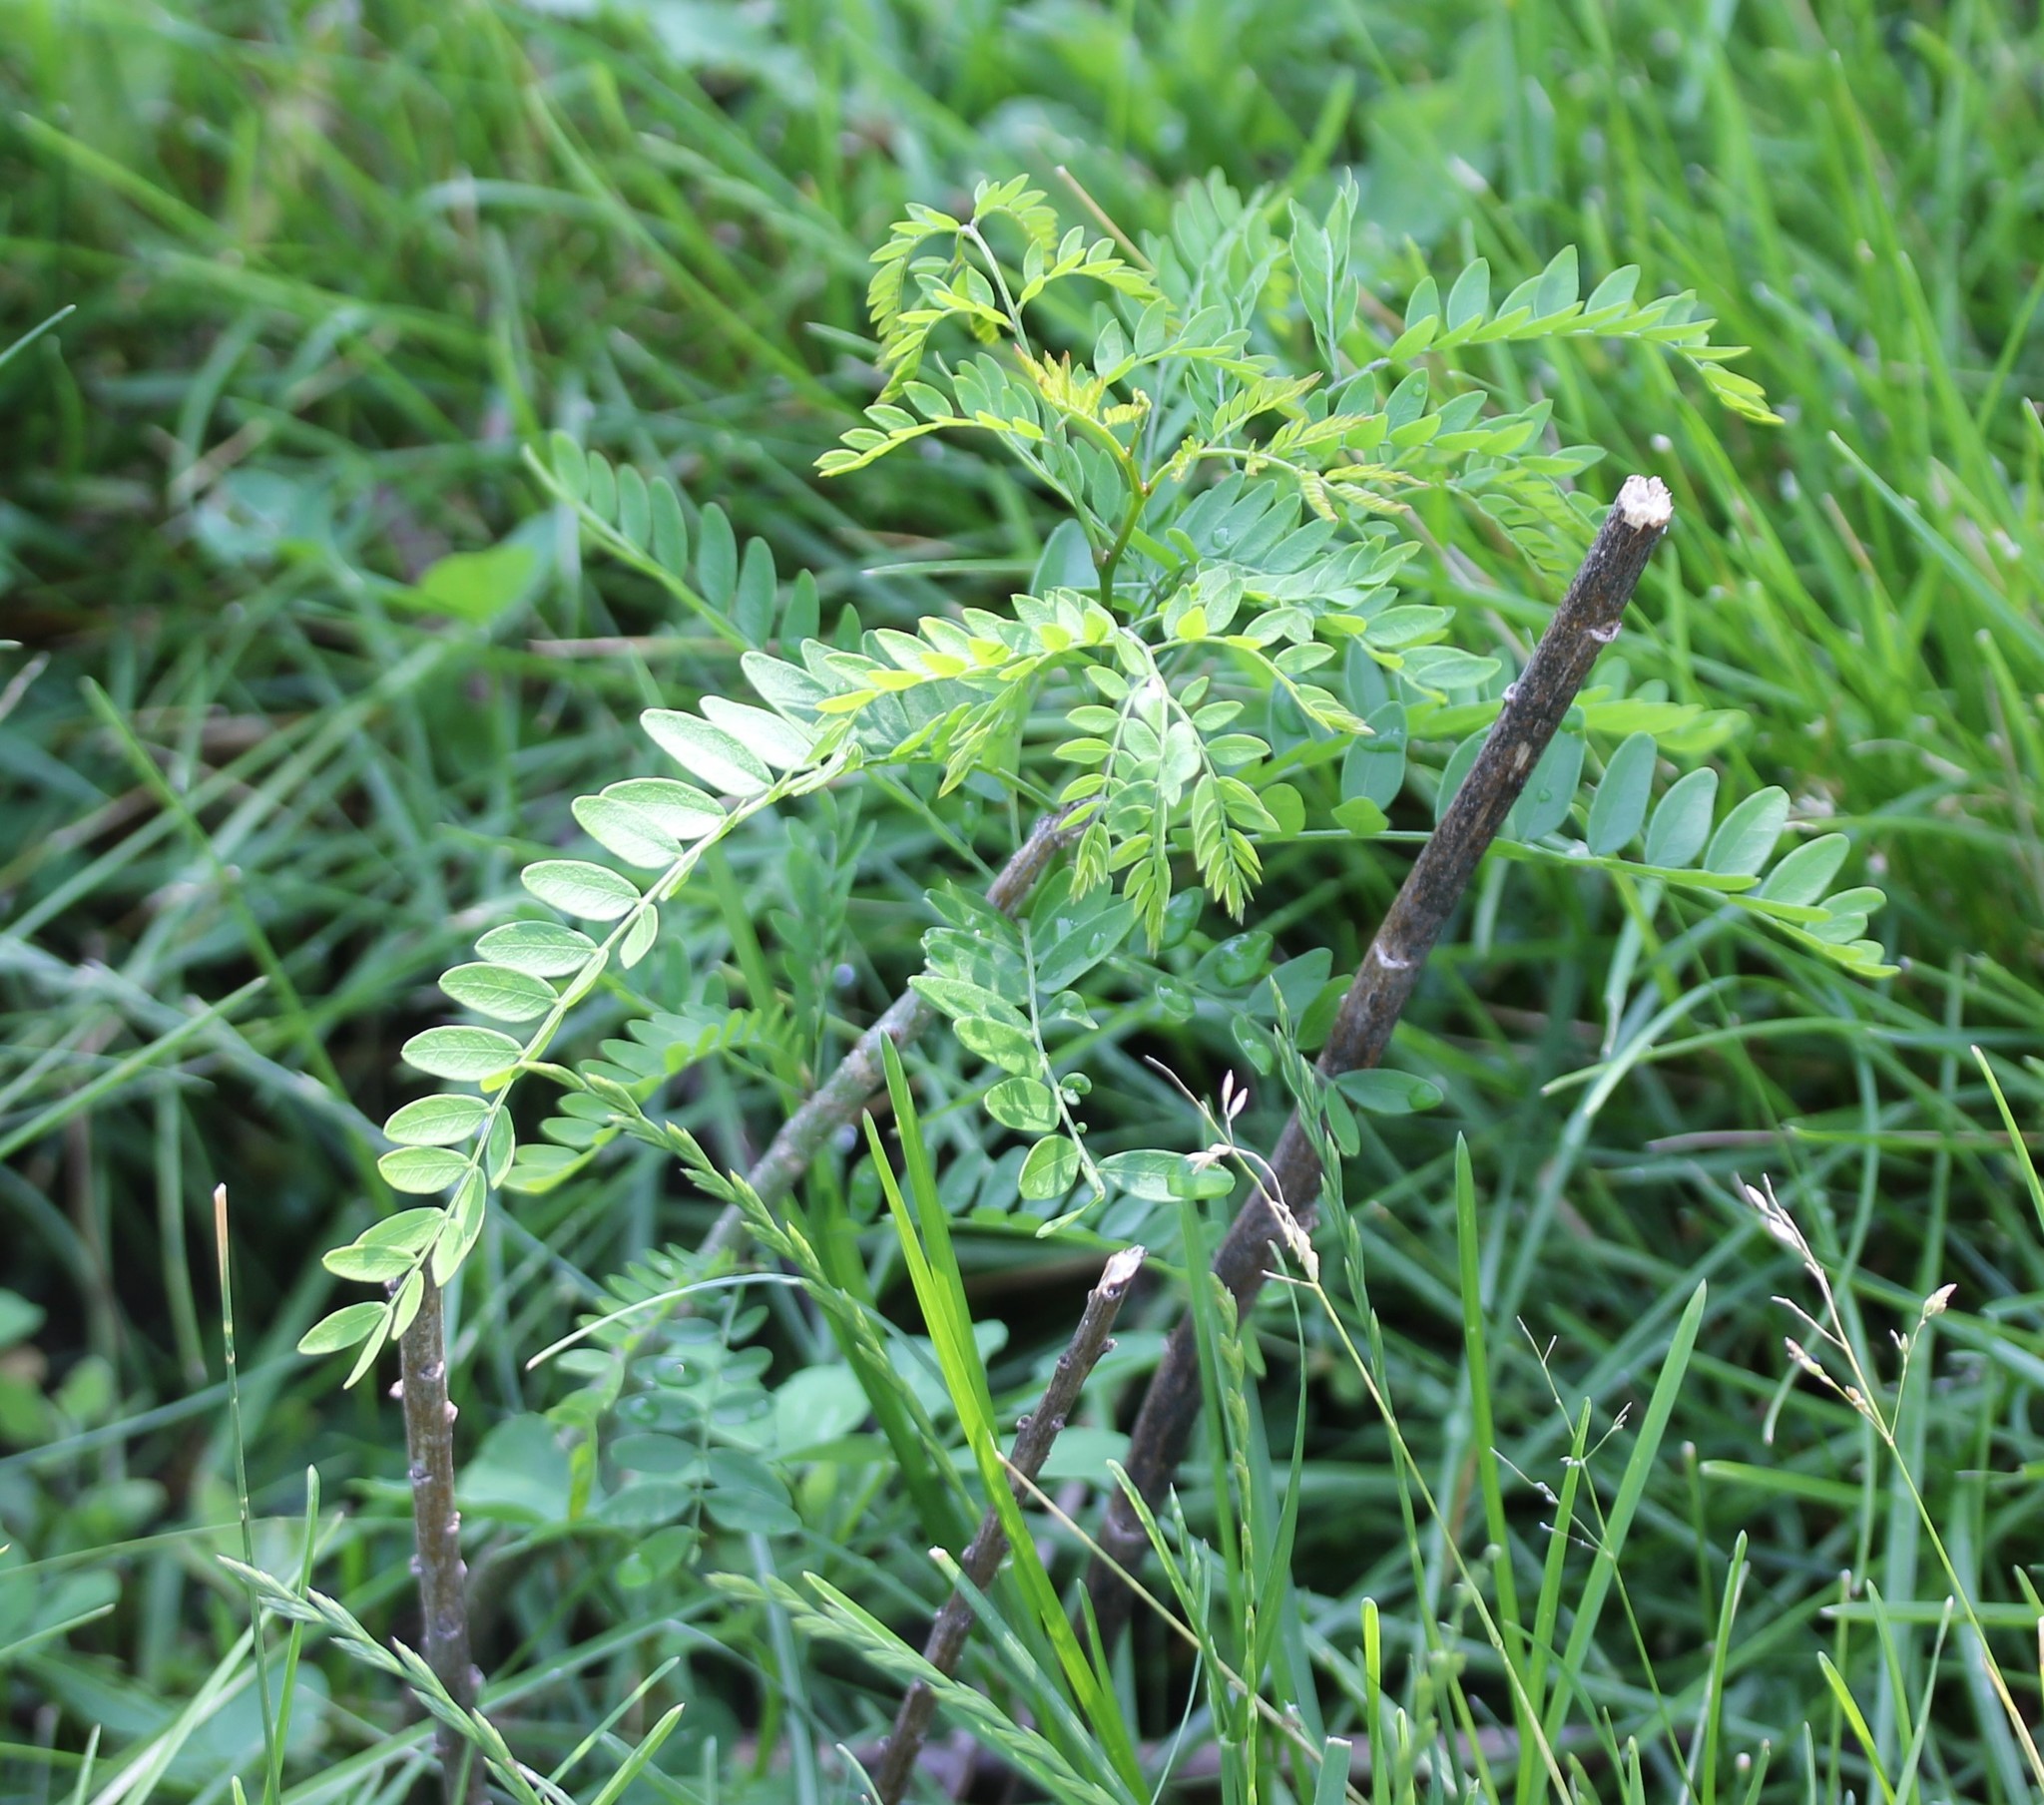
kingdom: Plantae
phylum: Tracheophyta
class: Magnoliopsida
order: Fabales
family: Fabaceae
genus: Gleditsia
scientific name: Gleditsia triacanthos
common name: Common honeylocust
